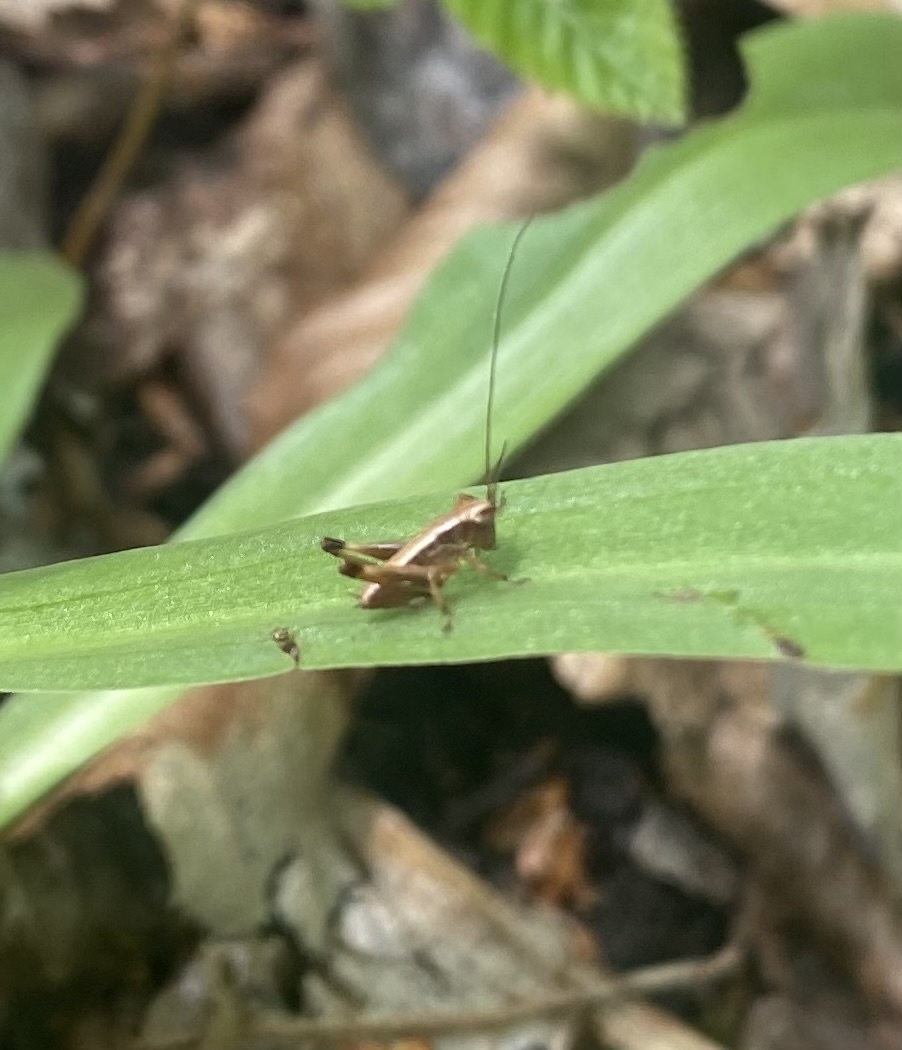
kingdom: Animalia
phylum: Arthropoda
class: Insecta
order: Orthoptera
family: Tettigoniidae
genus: Pholidoptera
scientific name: Pholidoptera griseoaptera
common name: Dark bush-cricket
